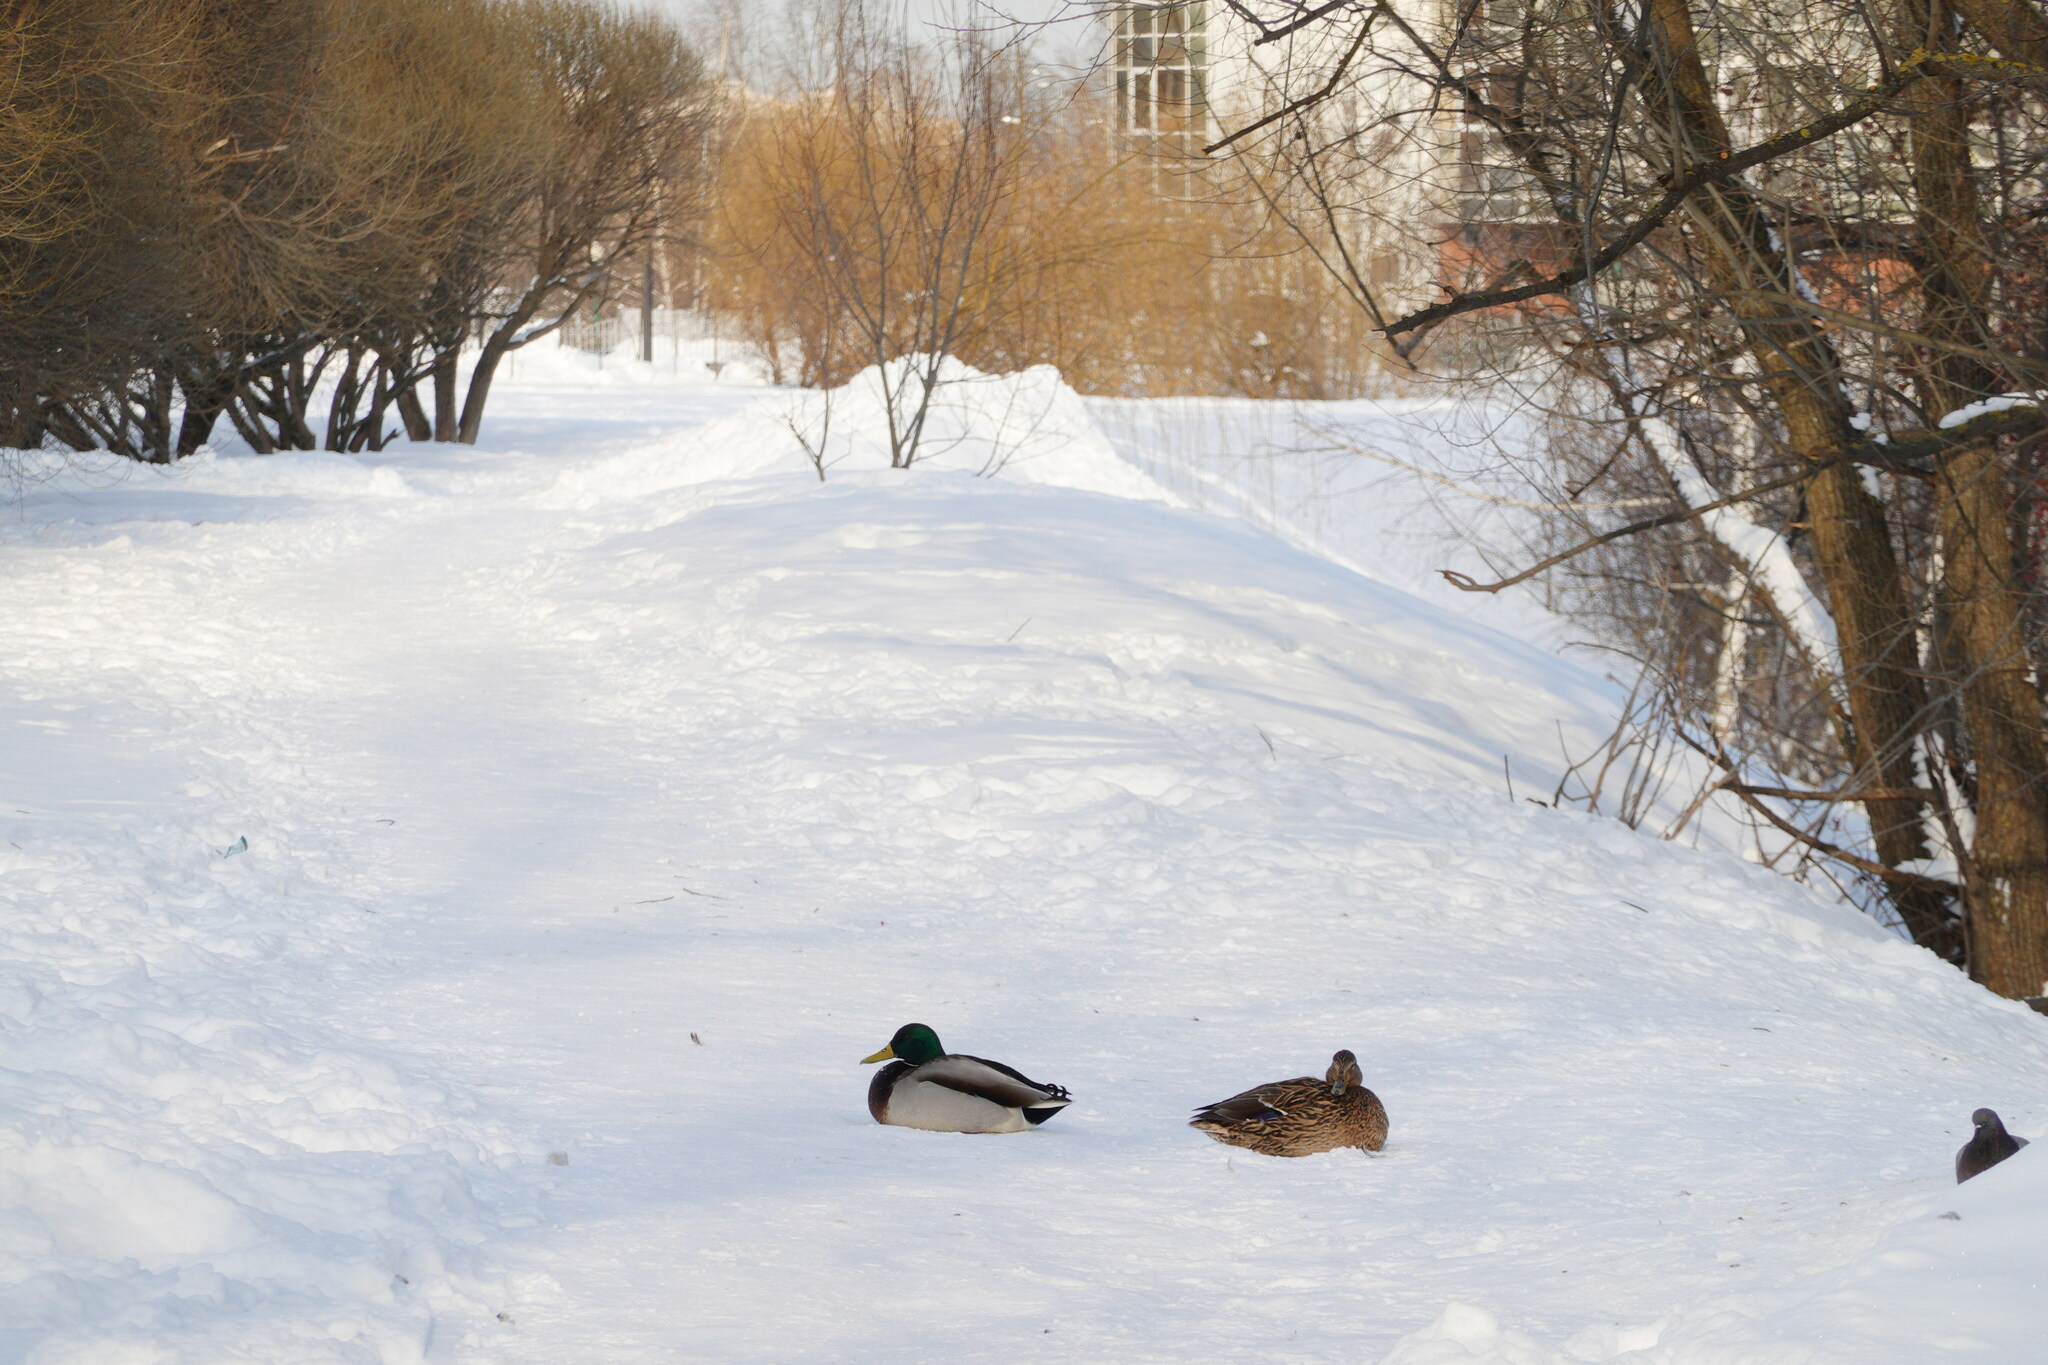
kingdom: Animalia
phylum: Chordata
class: Aves
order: Anseriformes
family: Anatidae
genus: Anas
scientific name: Anas platyrhynchos
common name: Mallard
